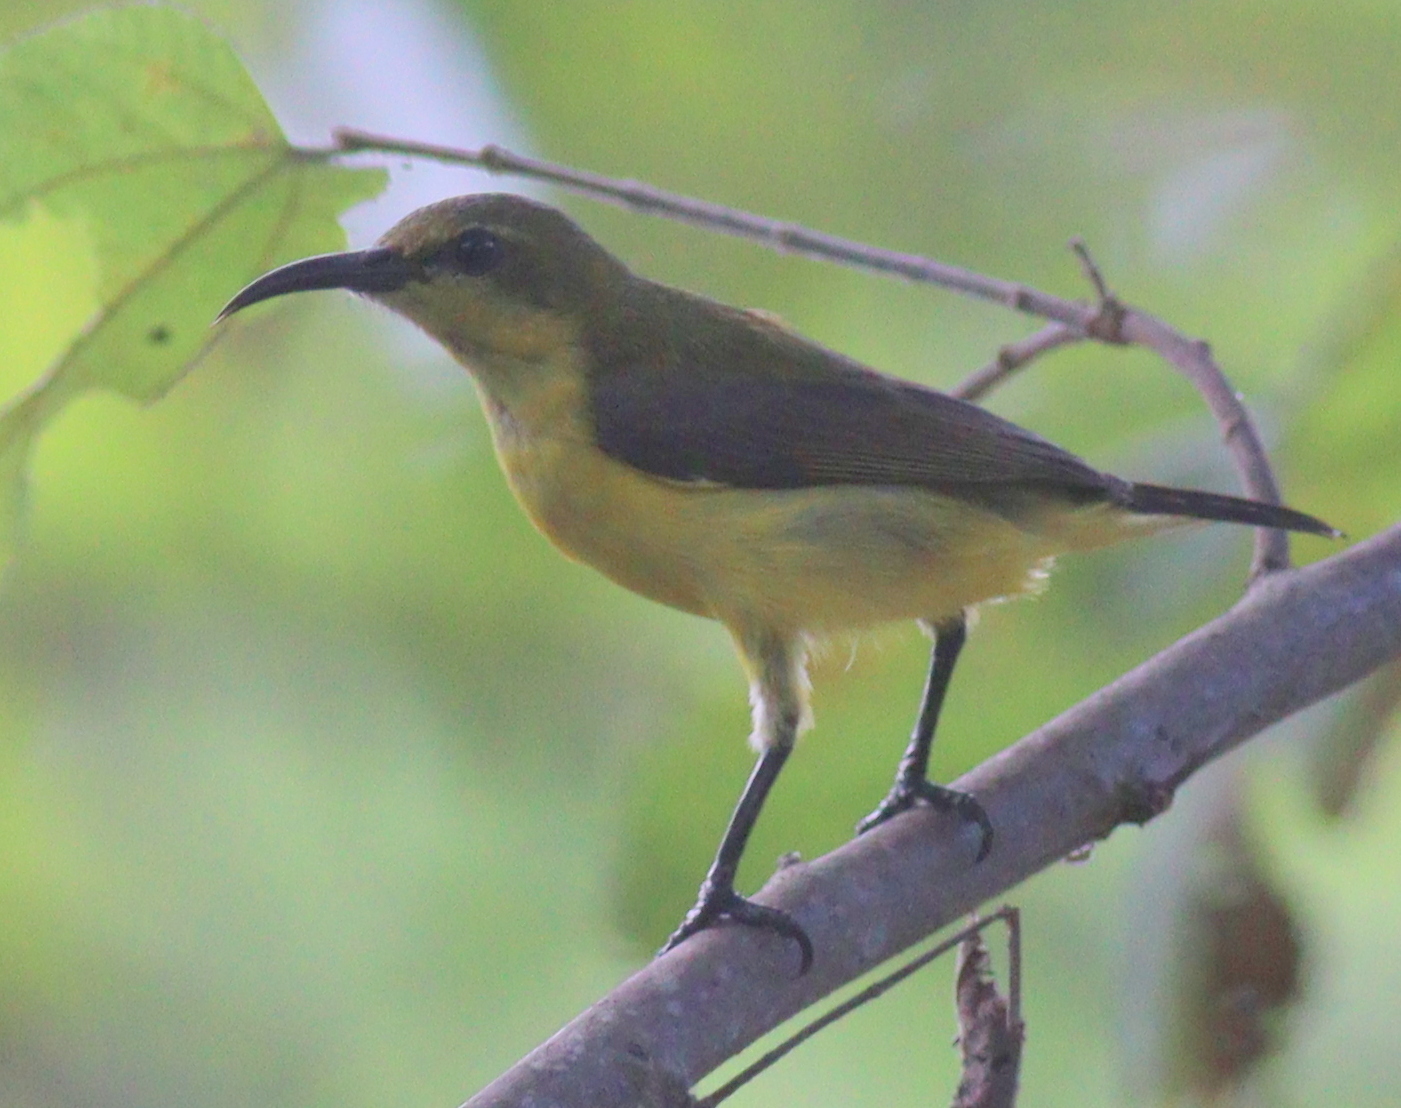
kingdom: Animalia
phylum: Chordata
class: Aves
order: Passeriformes
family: Nectariniidae
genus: Cinnyris
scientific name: Cinnyris
